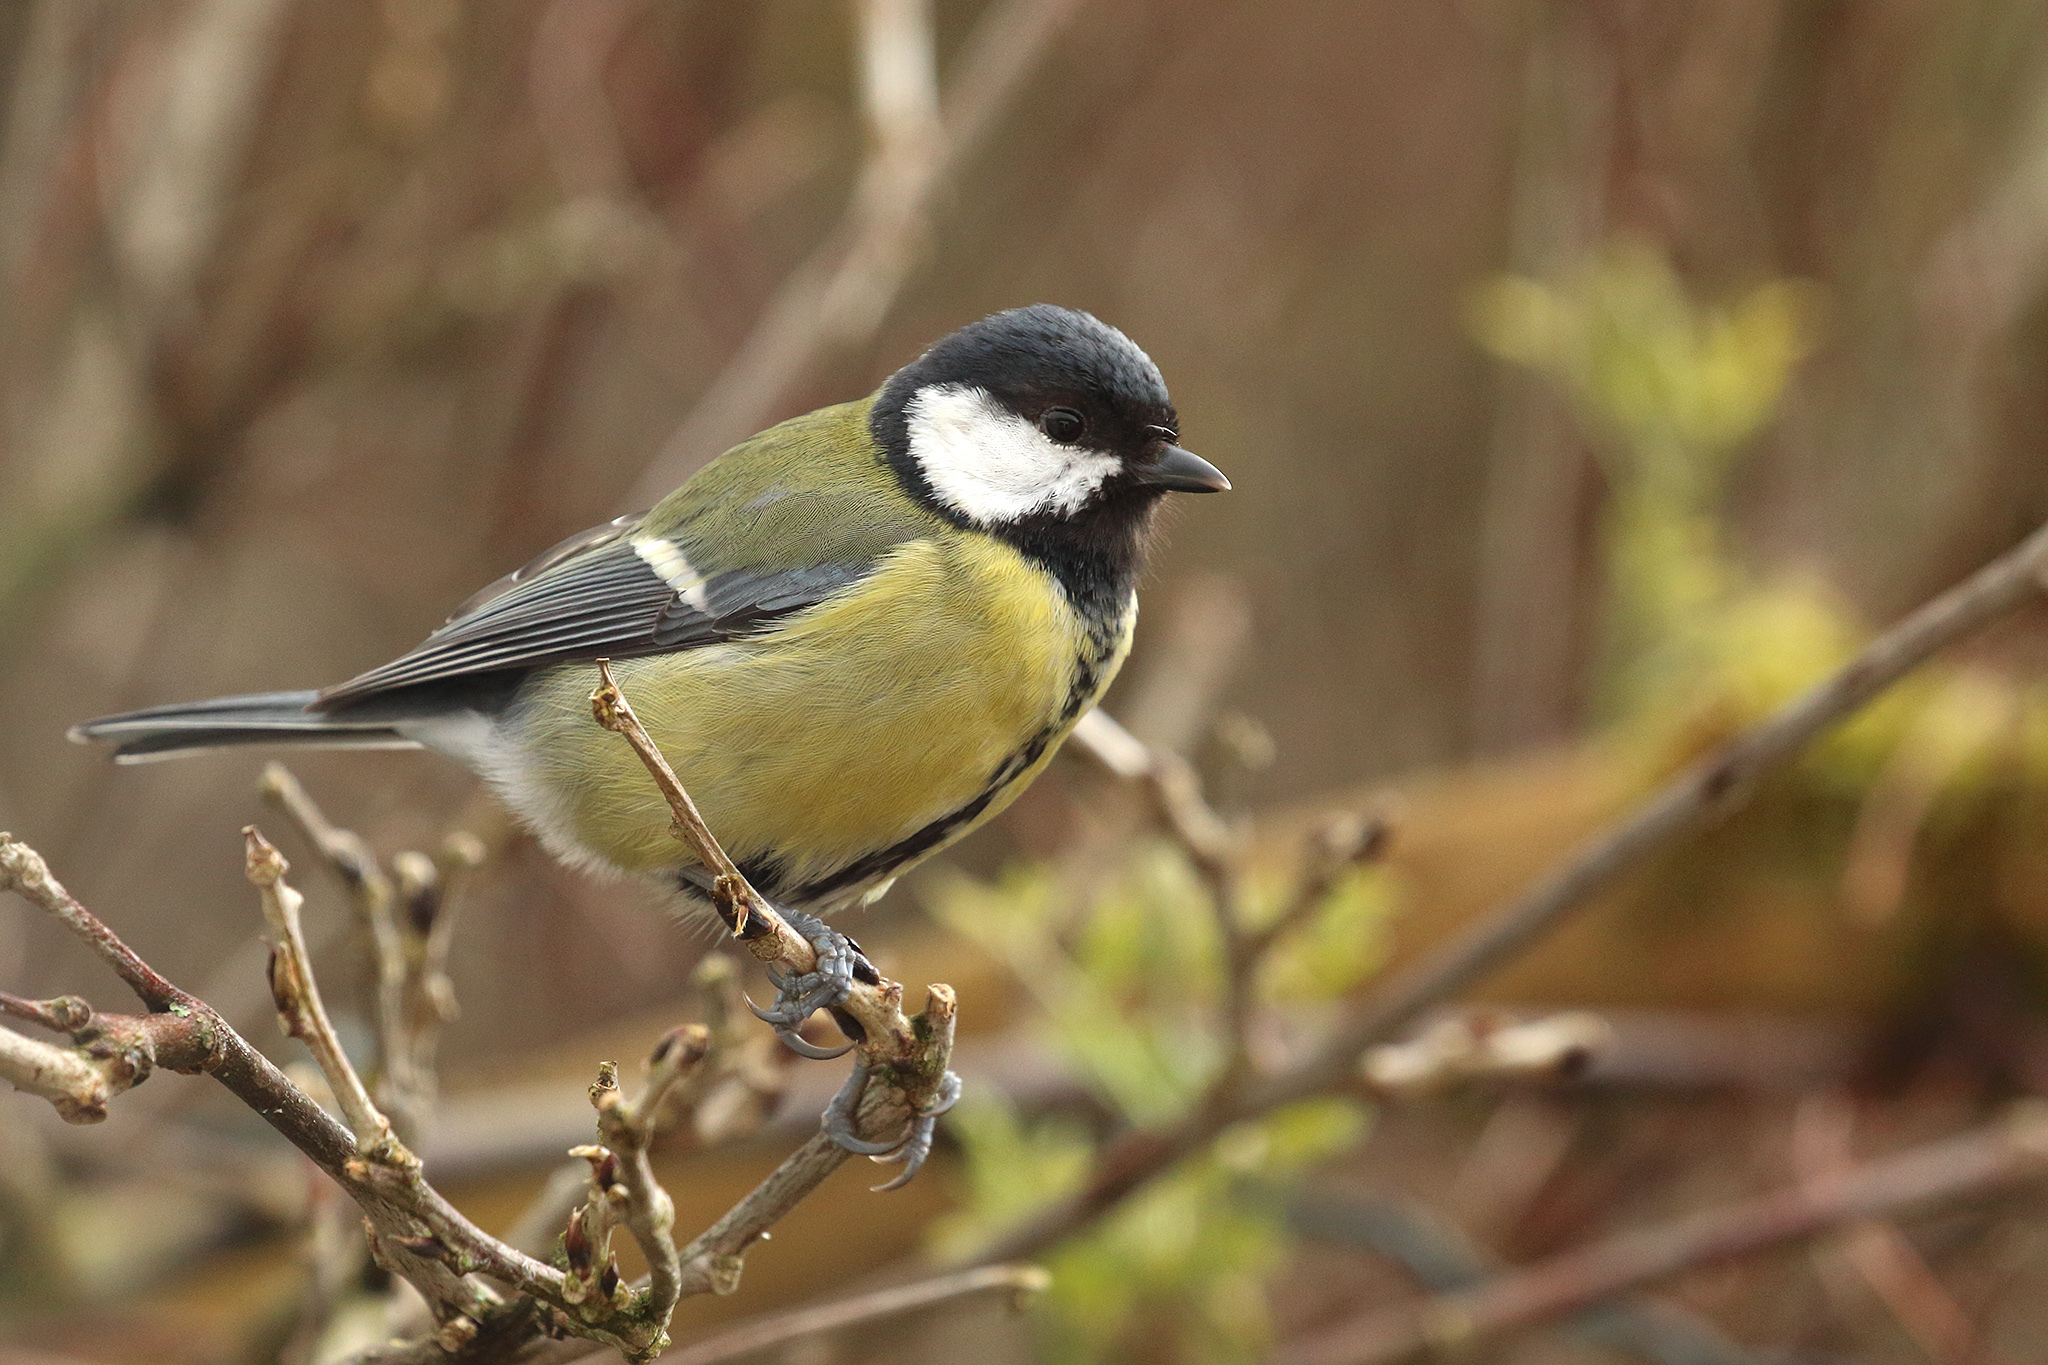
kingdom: Animalia
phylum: Chordata
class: Aves
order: Passeriformes
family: Paridae
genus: Parus
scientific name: Parus major
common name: Great tit
